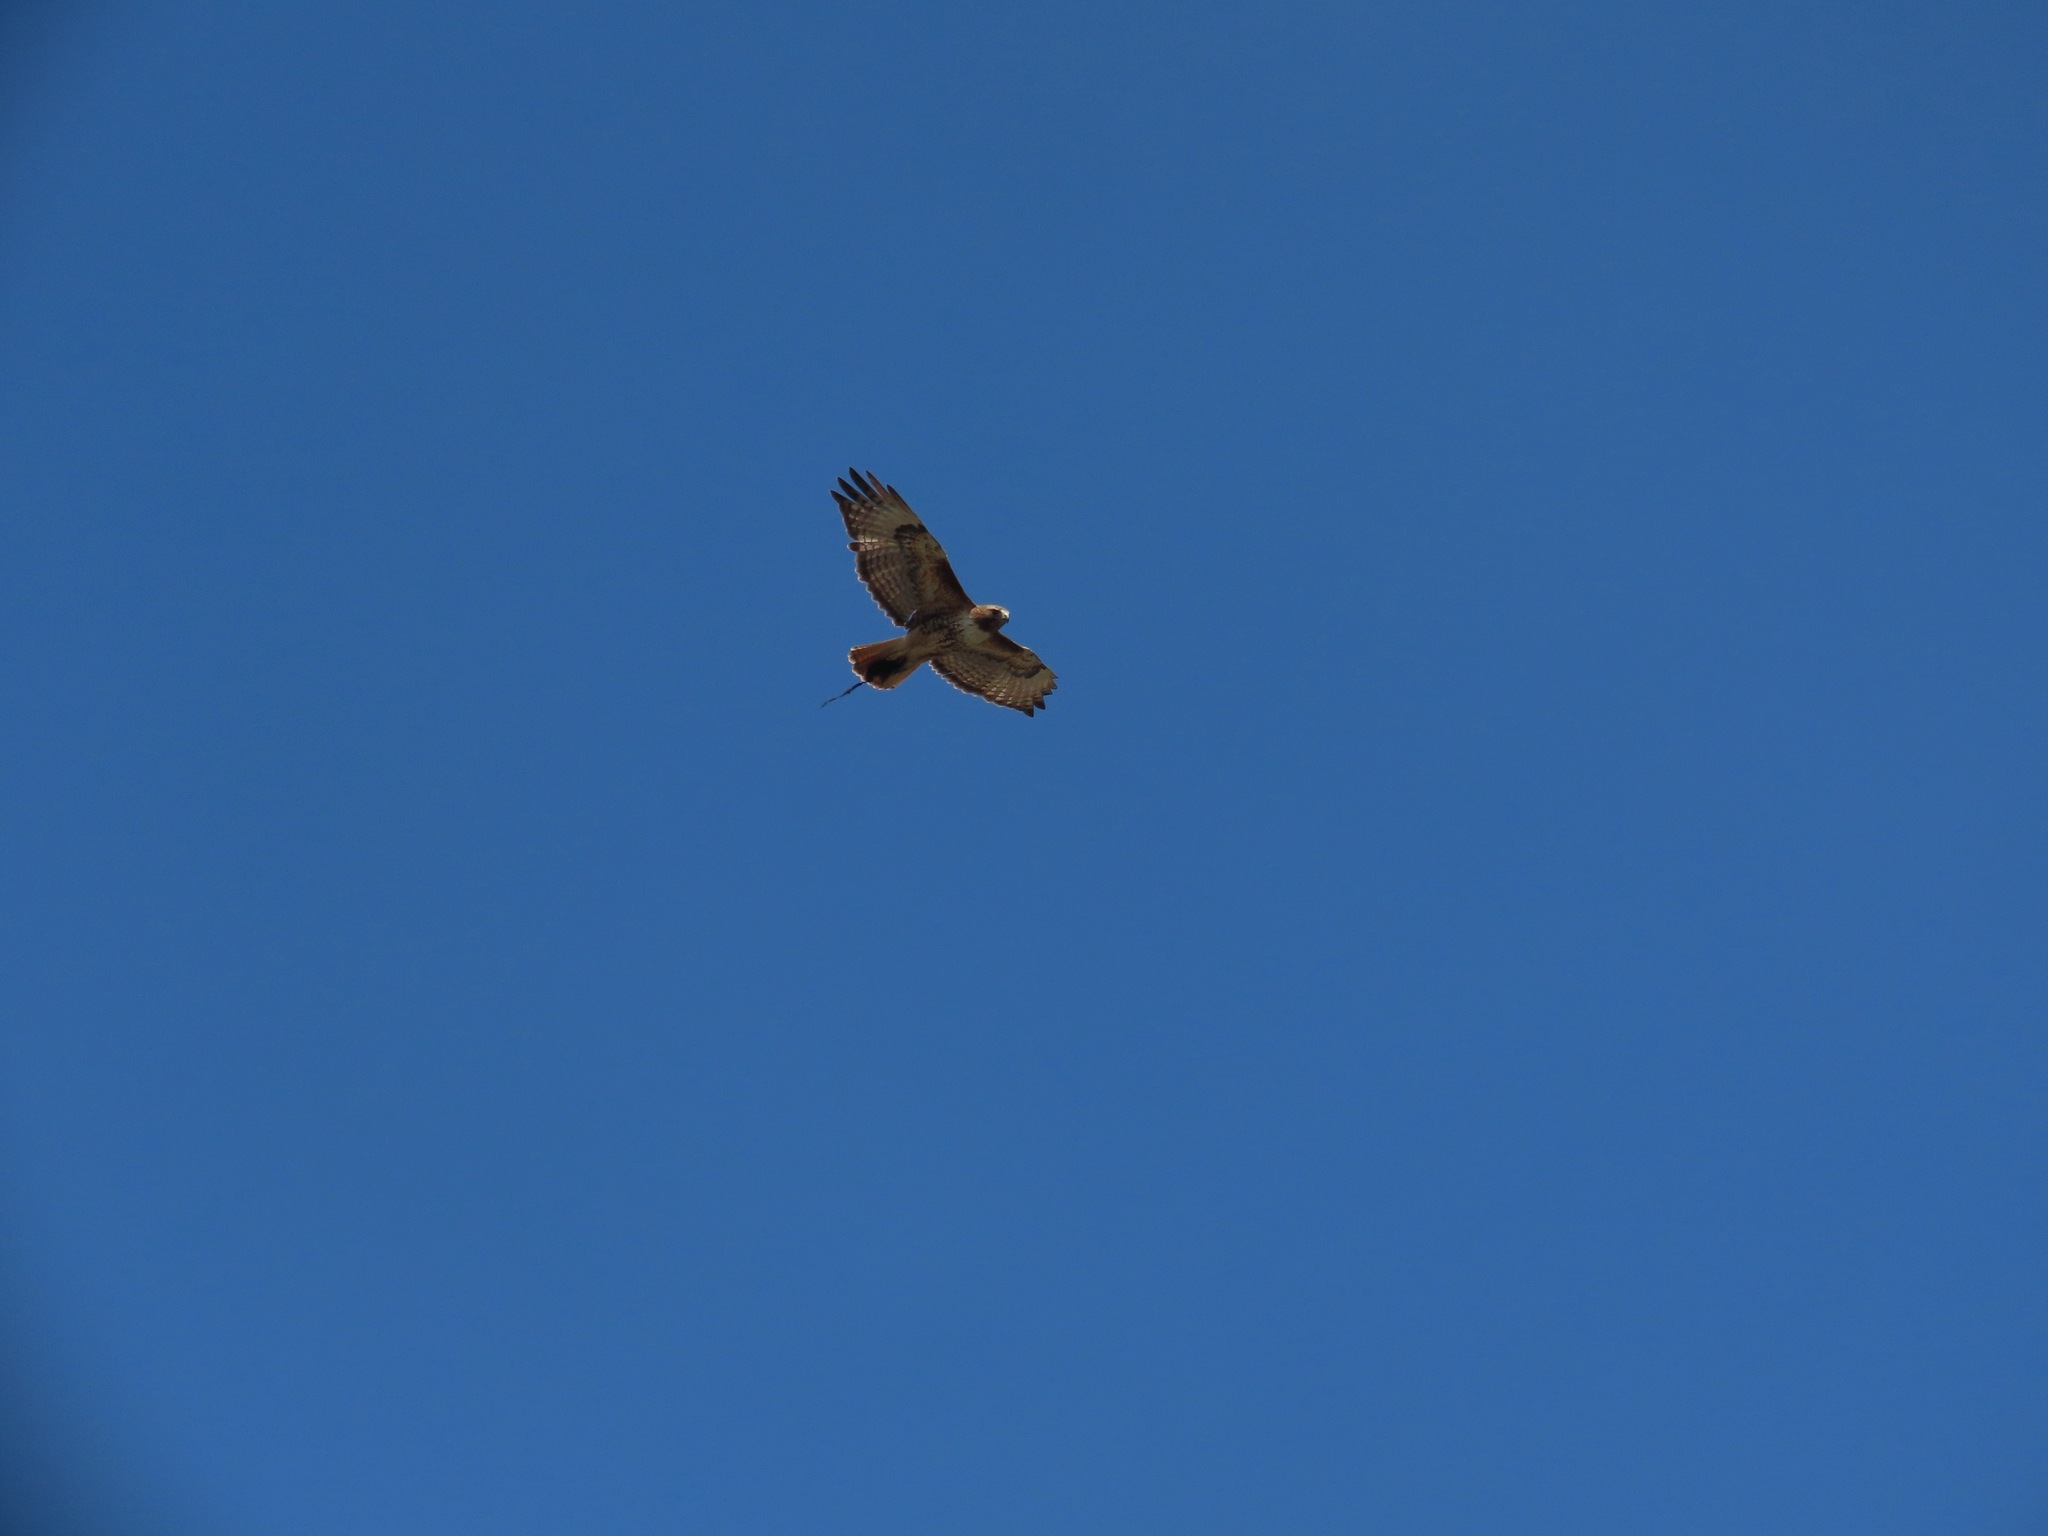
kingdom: Animalia
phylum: Chordata
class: Aves
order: Accipitriformes
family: Accipitridae
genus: Buteo
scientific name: Buteo jamaicensis
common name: Red-tailed hawk
